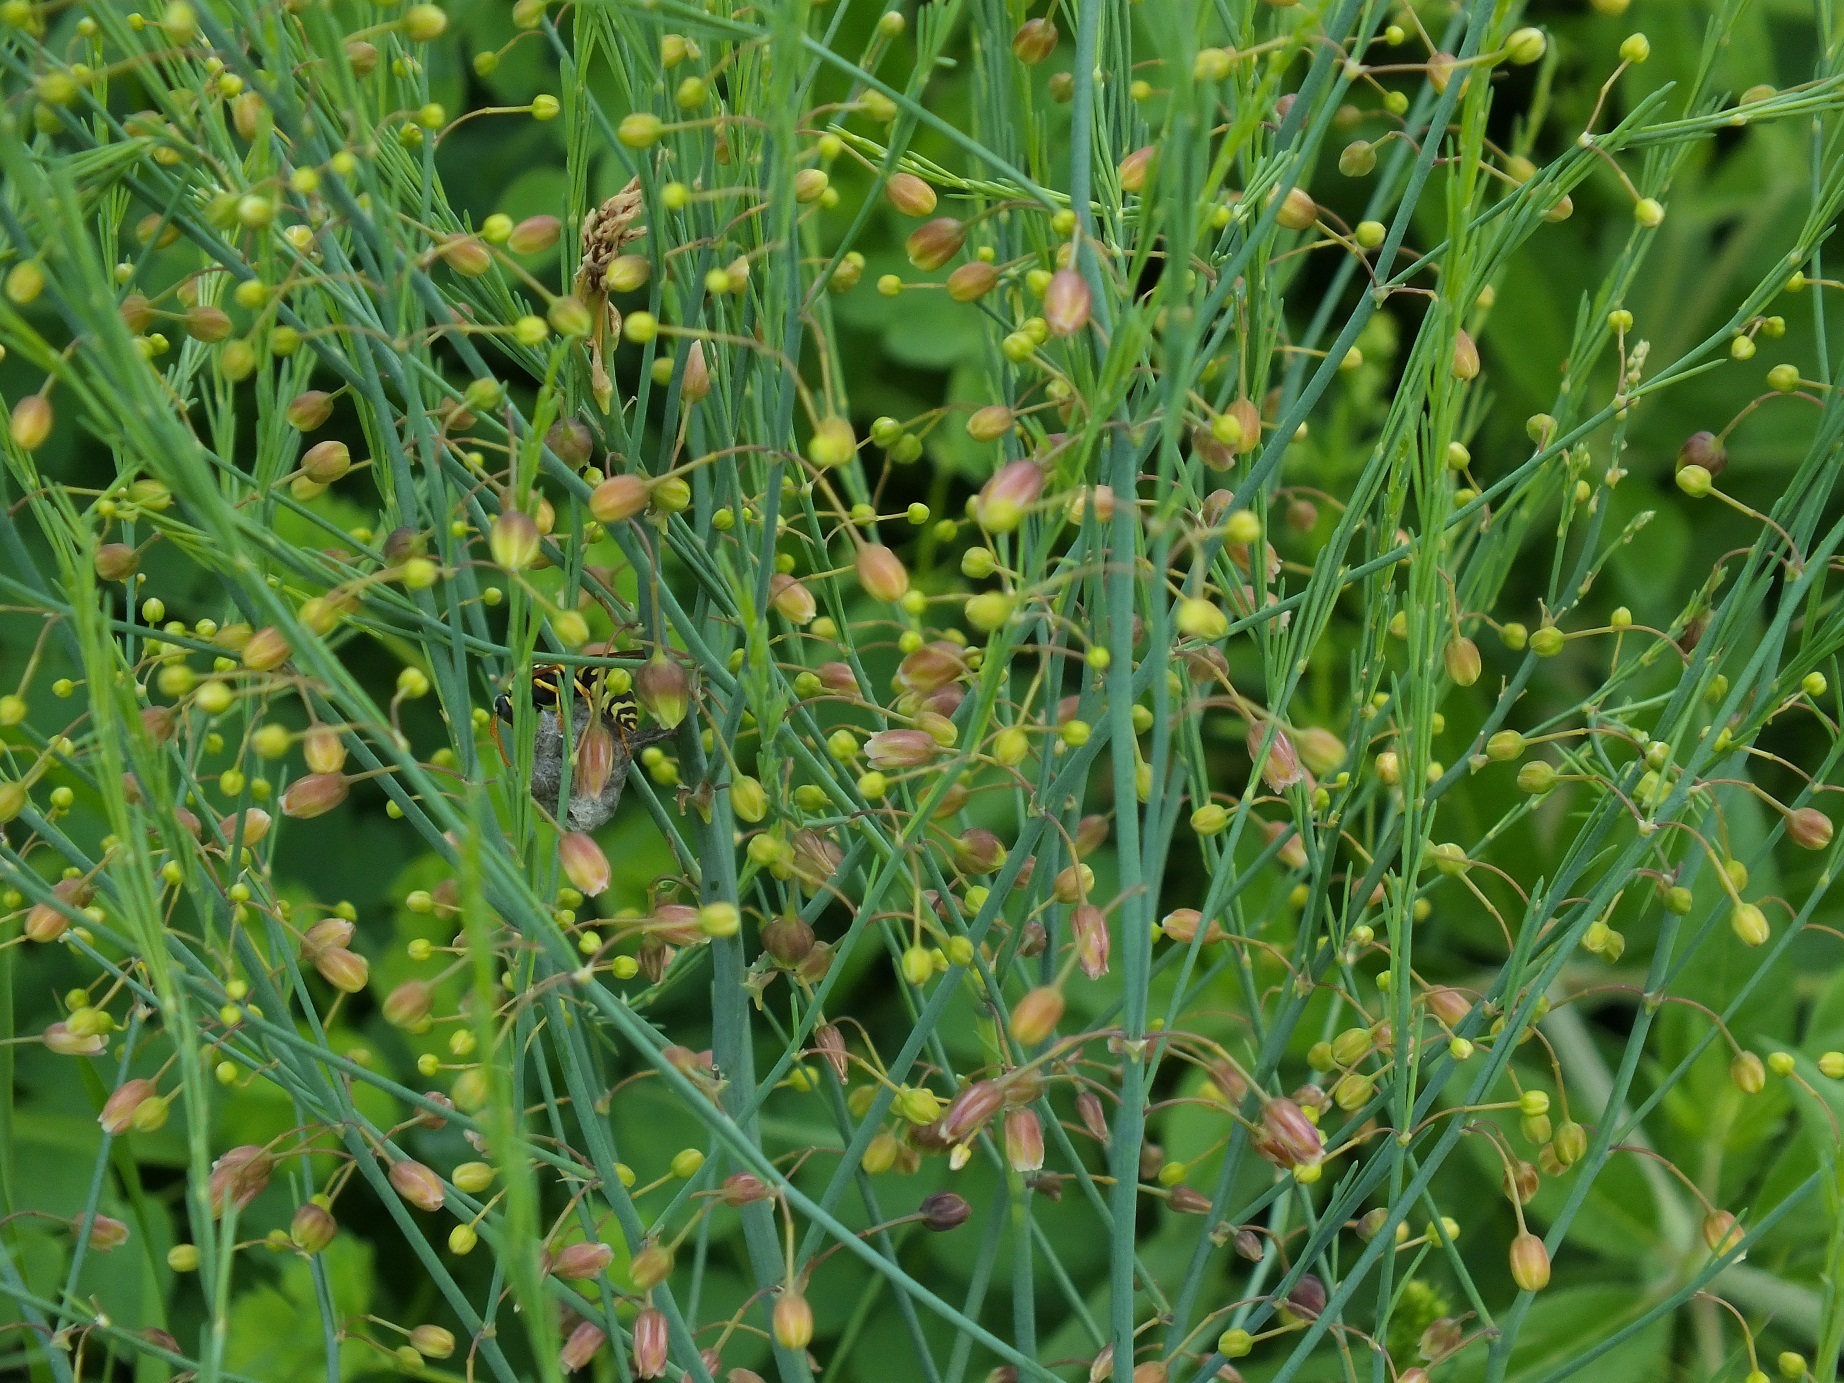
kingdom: Plantae
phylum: Tracheophyta
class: Liliopsida
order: Asparagales
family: Asparagaceae
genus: Asparagus
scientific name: Asparagus officinalis
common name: Garden asparagus
